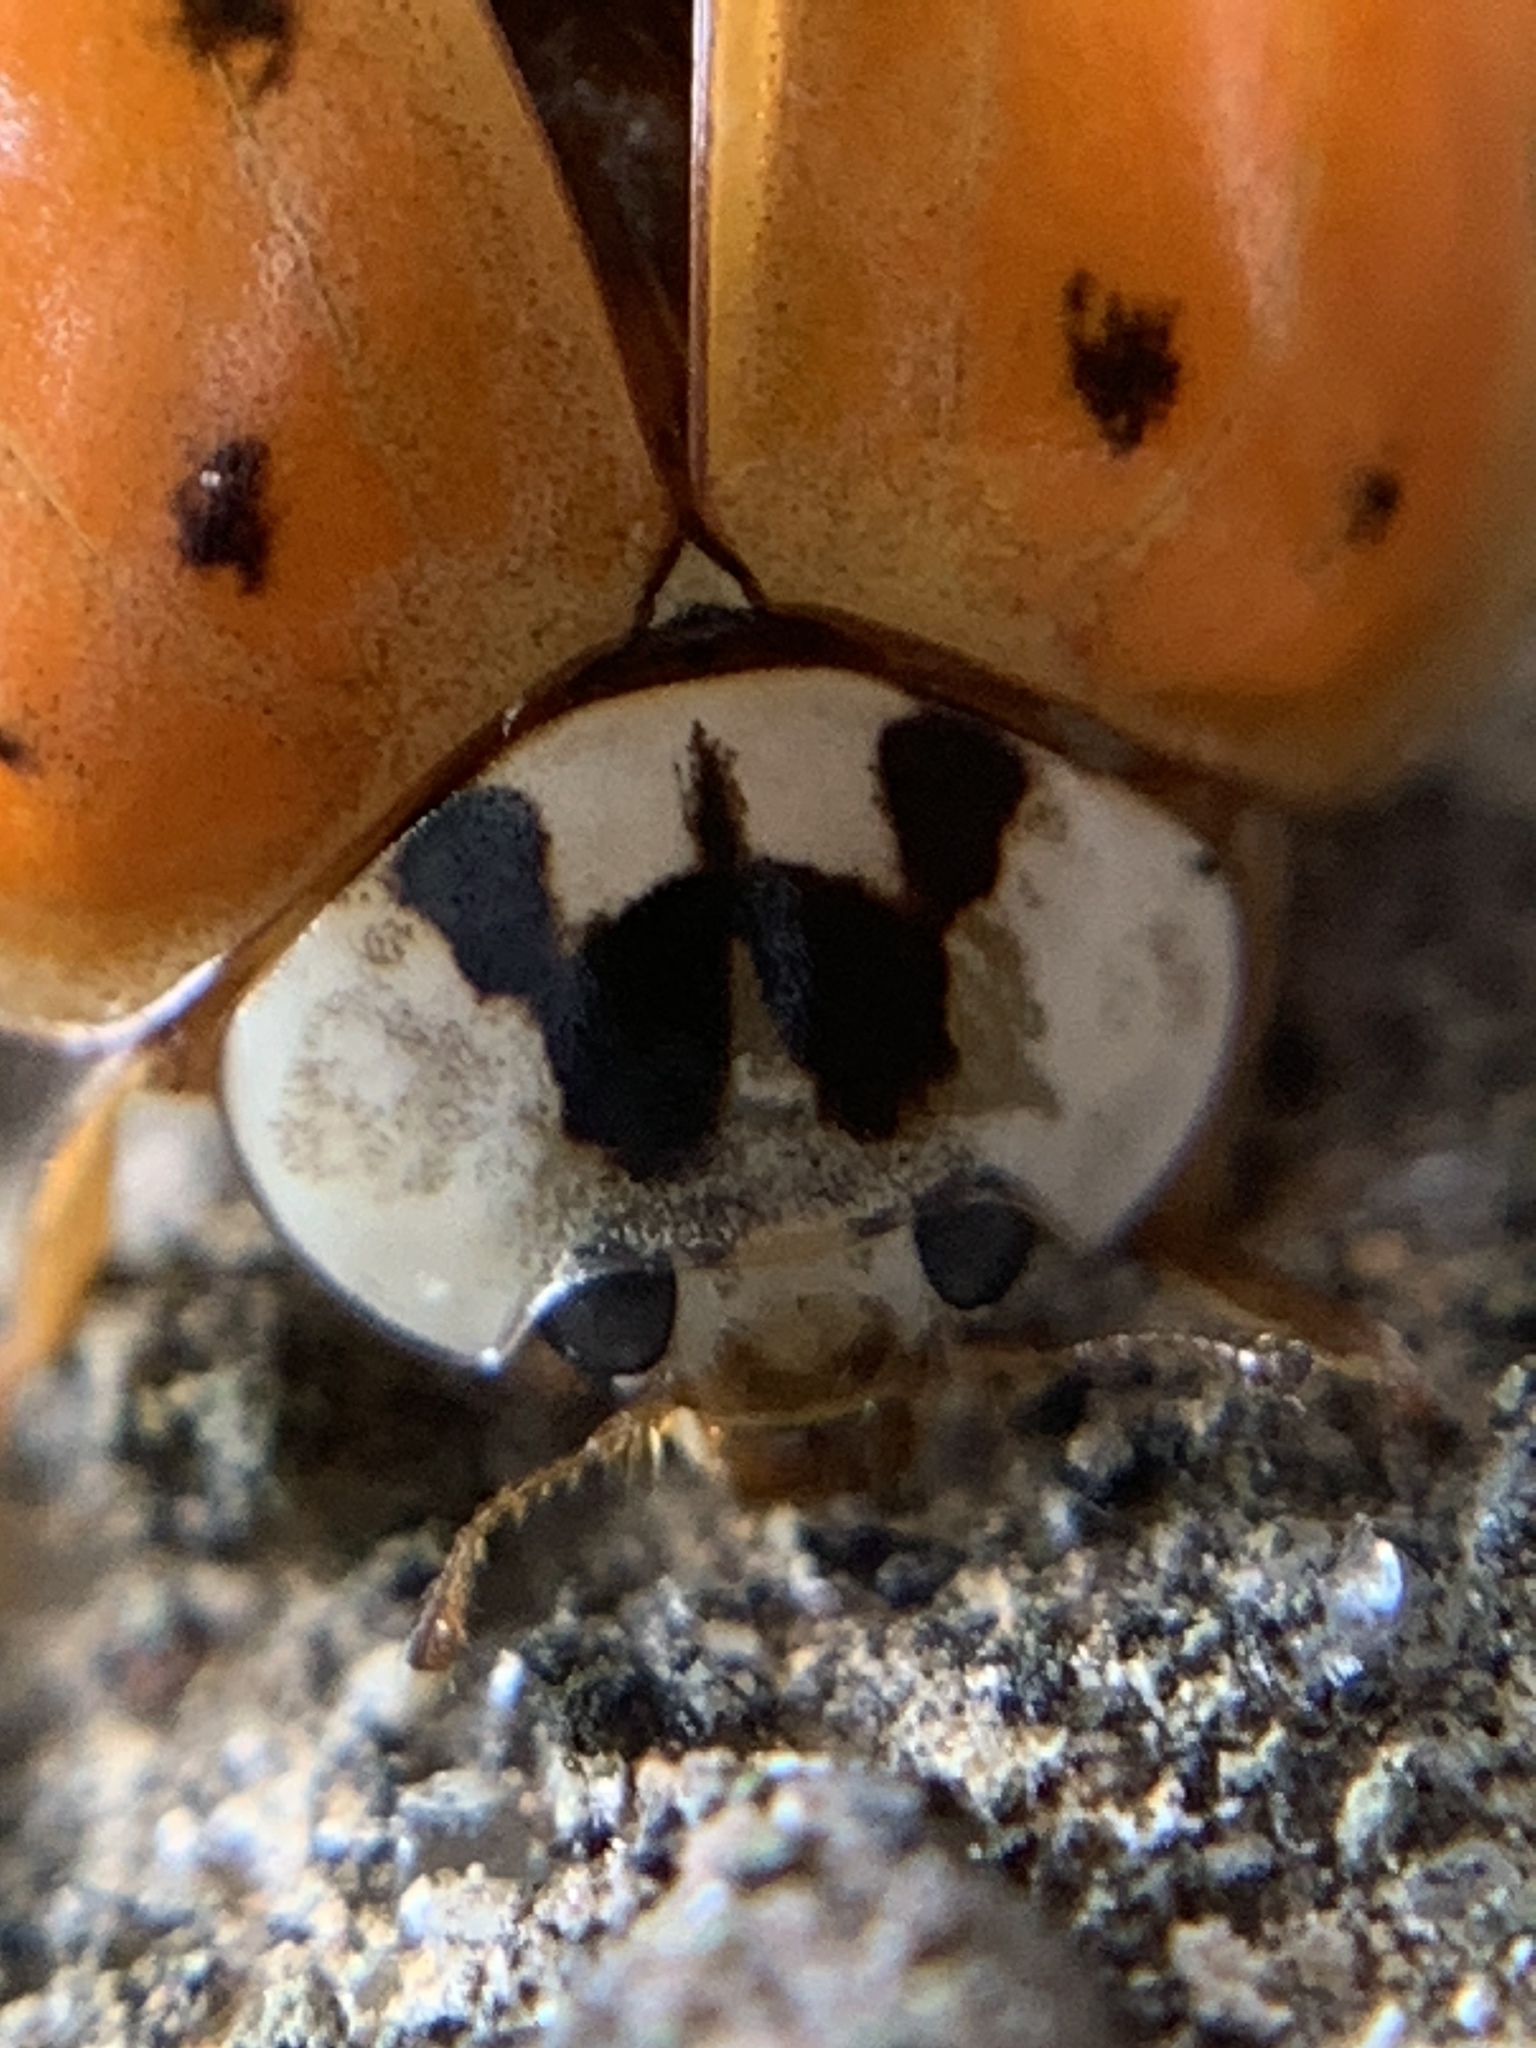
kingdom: Animalia
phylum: Arthropoda
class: Insecta
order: Coleoptera
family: Coccinellidae
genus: Harmonia
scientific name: Harmonia axyridis
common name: Harlequin ladybird
